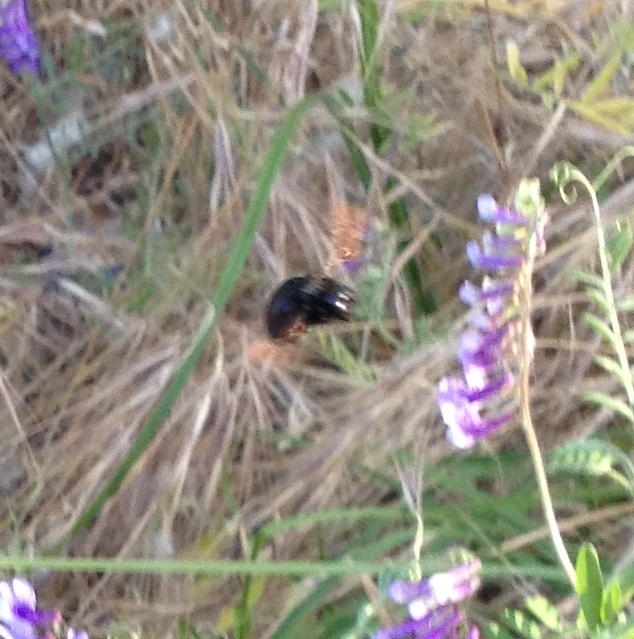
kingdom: Animalia
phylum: Arthropoda
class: Insecta
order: Hymenoptera
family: Apidae
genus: Xylocopa
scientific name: Xylocopa sonorina
